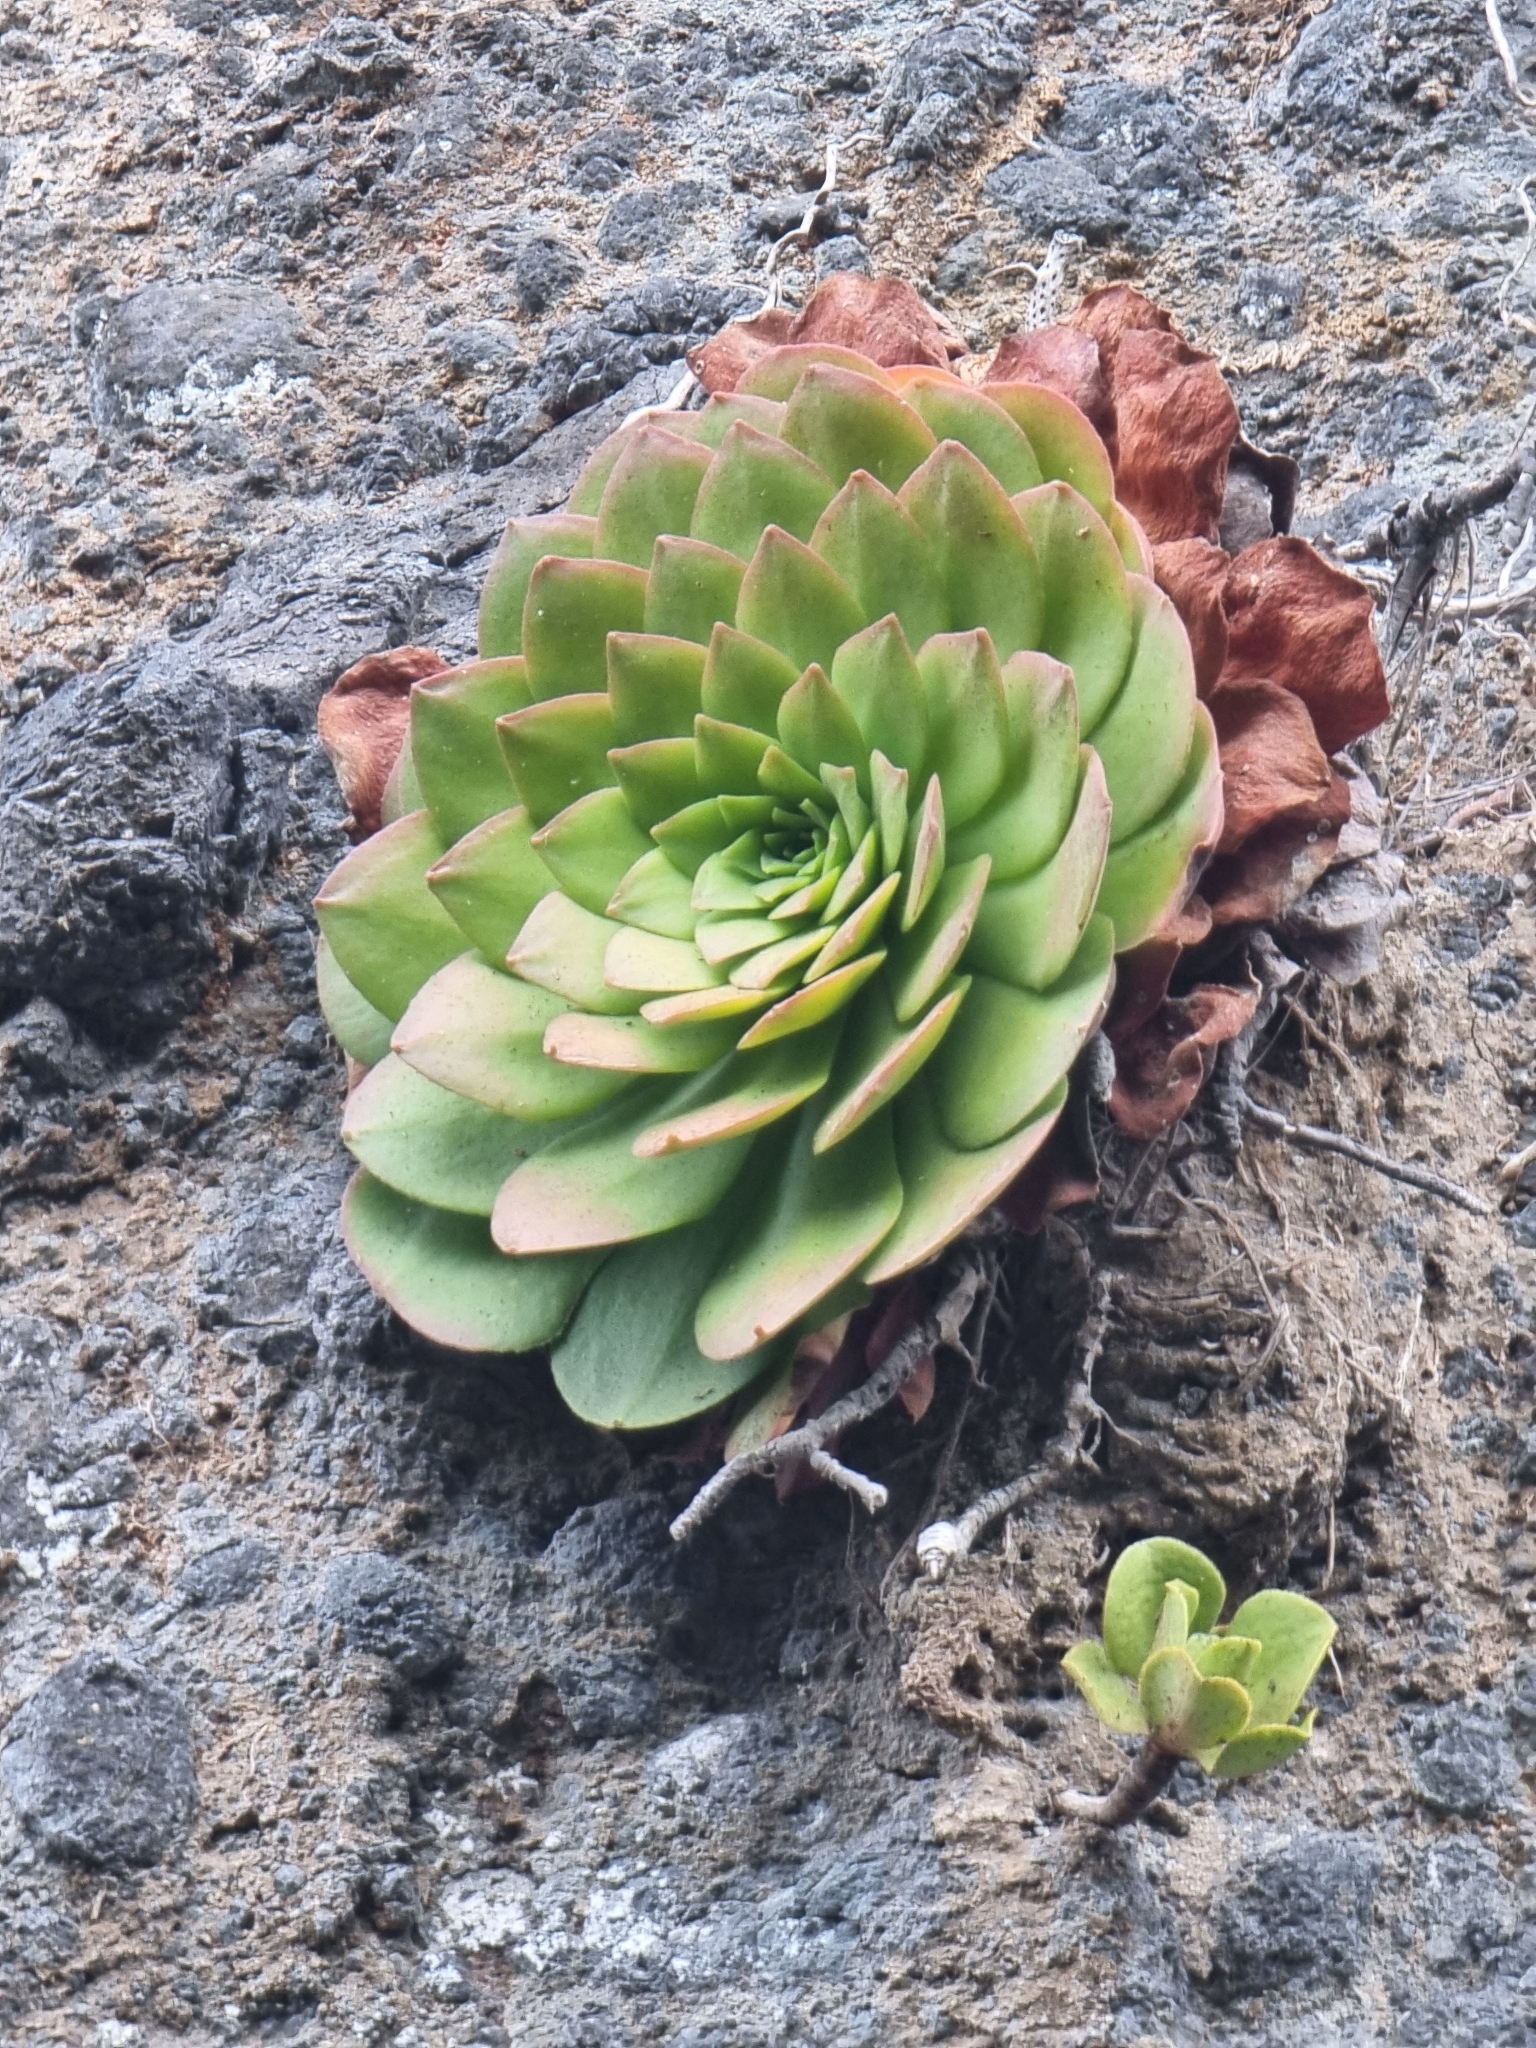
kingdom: Plantae
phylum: Tracheophyta
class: Magnoliopsida
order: Saxifragales
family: Crassulaceae
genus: Aeonium
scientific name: Aeonium glandulosum
